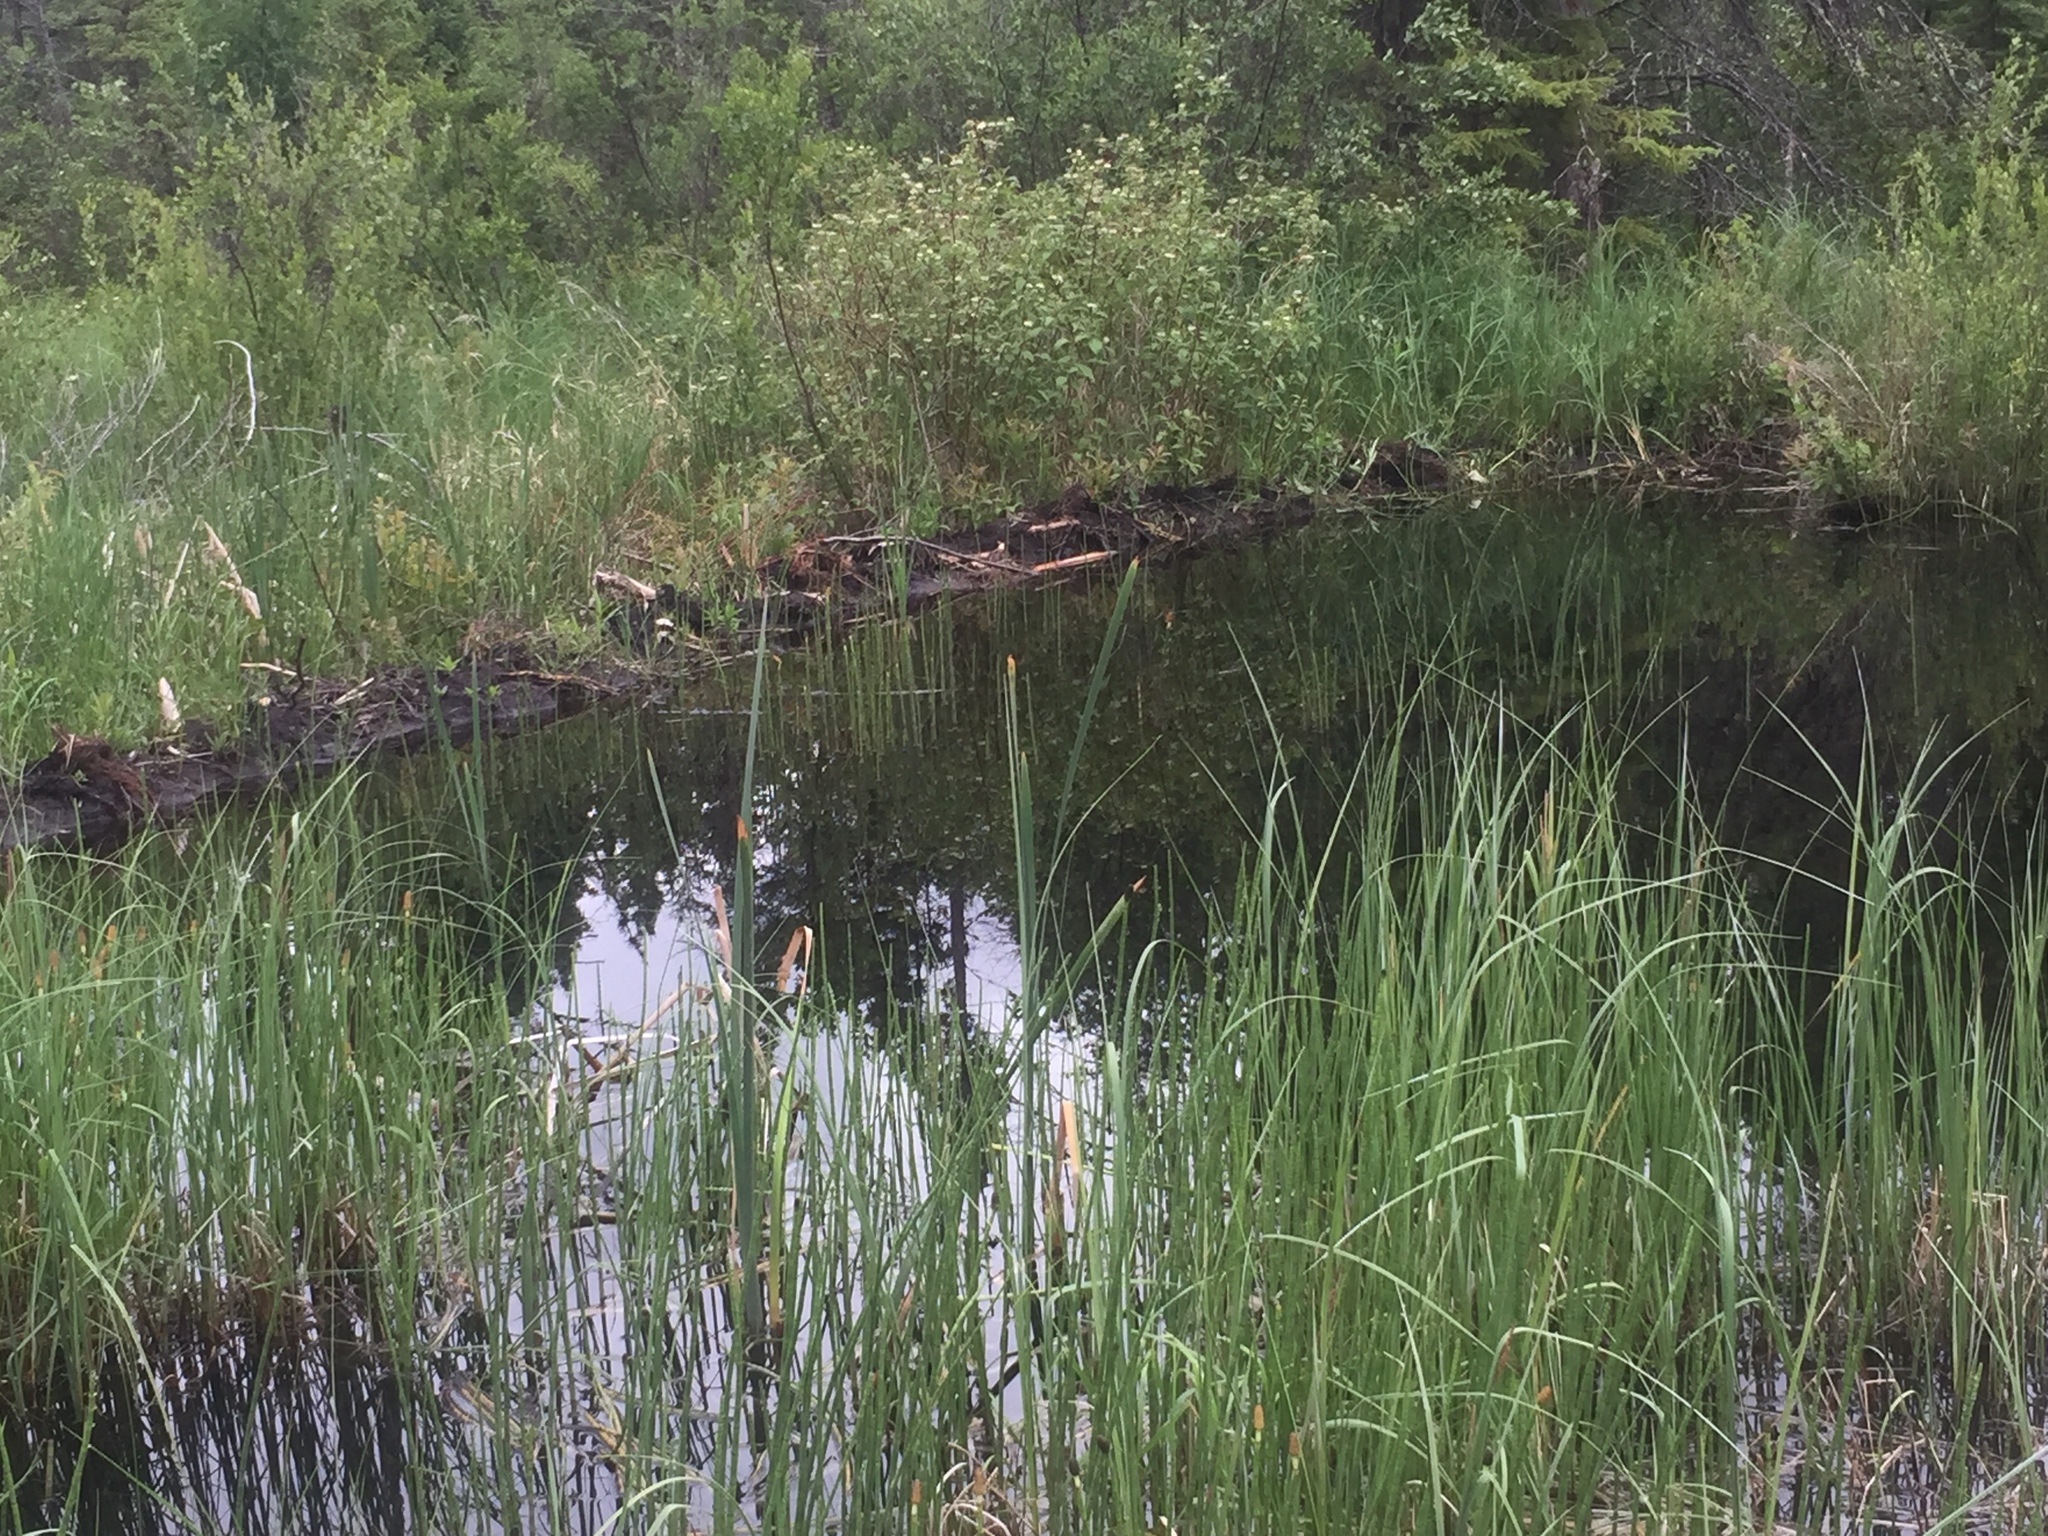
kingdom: Animalia
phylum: Chordata
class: Mammalia
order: Rodentia
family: Castoridae
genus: Castor
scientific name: Castor canadensis
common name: American beaver
